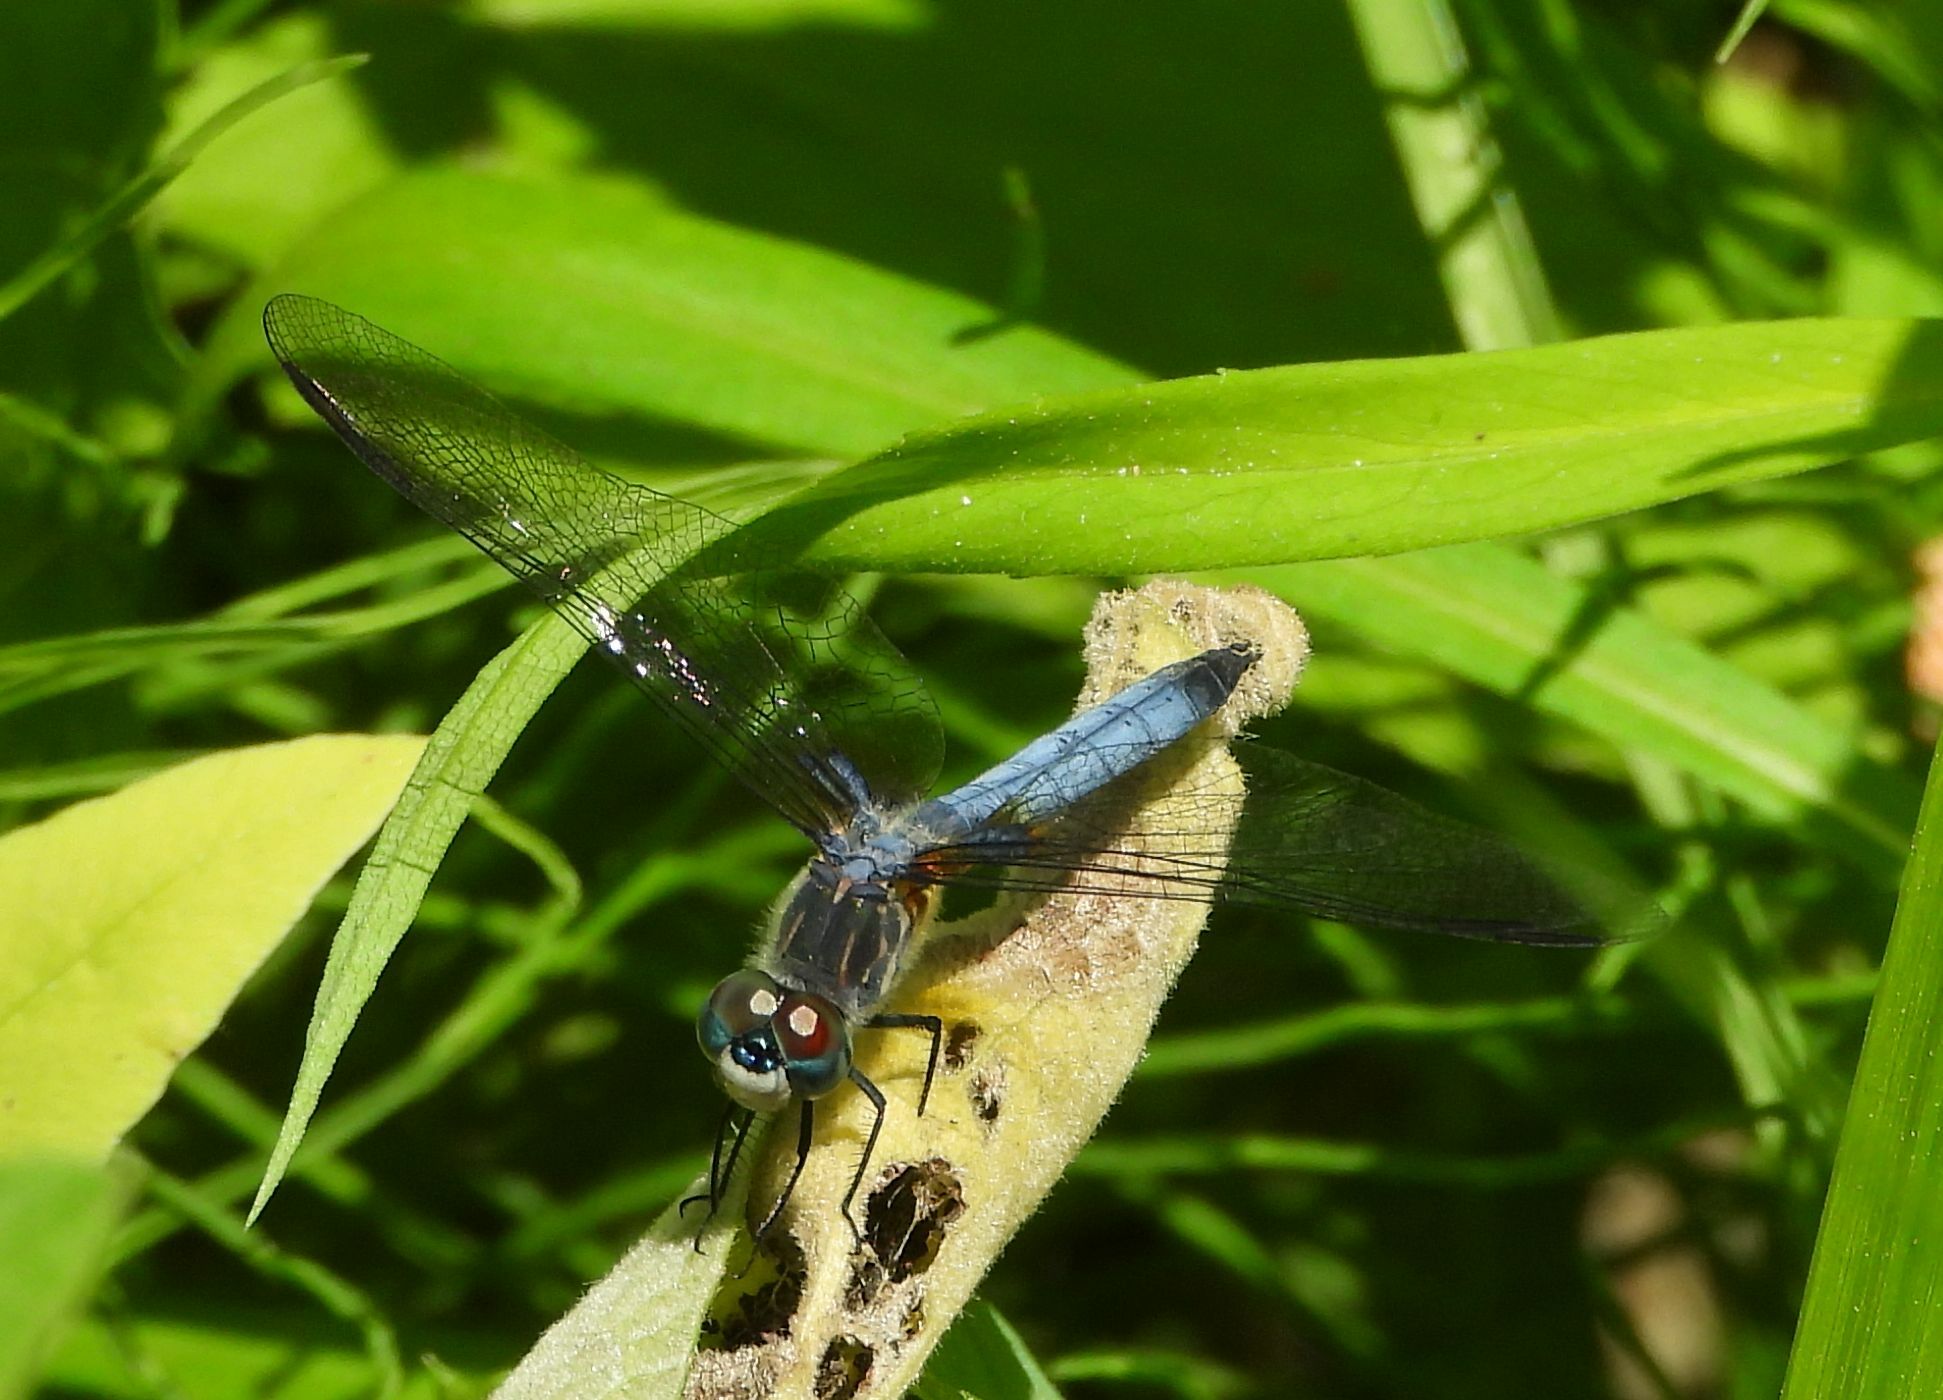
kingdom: Animalia
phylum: Arthropoda
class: Insecta
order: Odonata
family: Libellulidae
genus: Pachydiplax
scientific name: Pachydiplax longipennis
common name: Blue dasher
